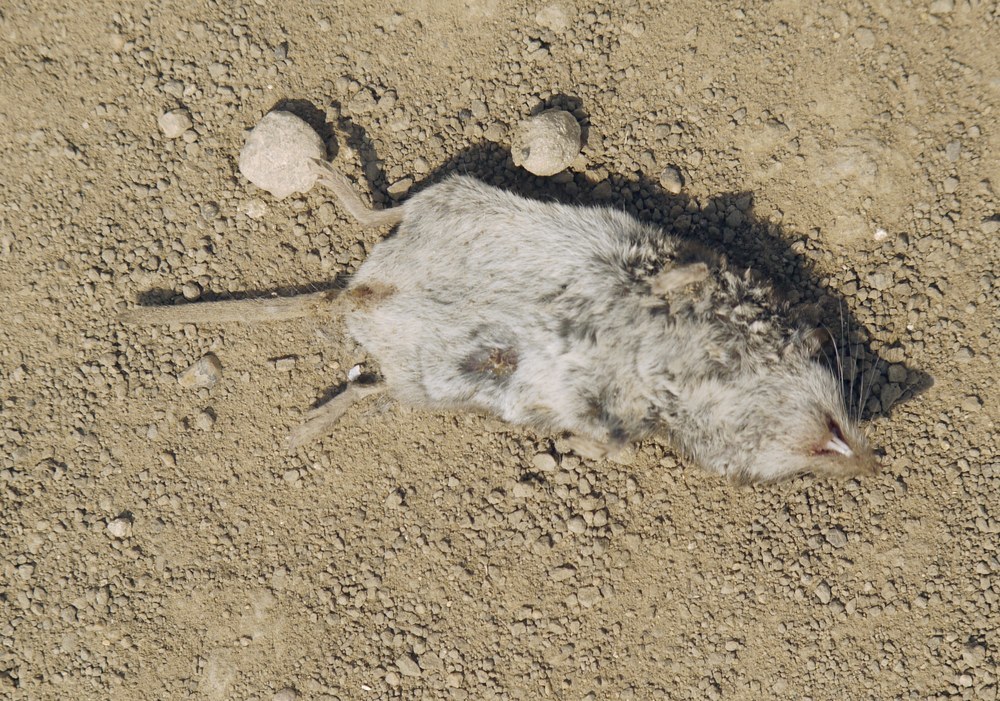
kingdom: Animalia
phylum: Chordata
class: Mammalia
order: Soricomorpha
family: Soricidae
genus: Crocidura
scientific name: Crocidura suaveolens
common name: Lesser white-toothed shrew
